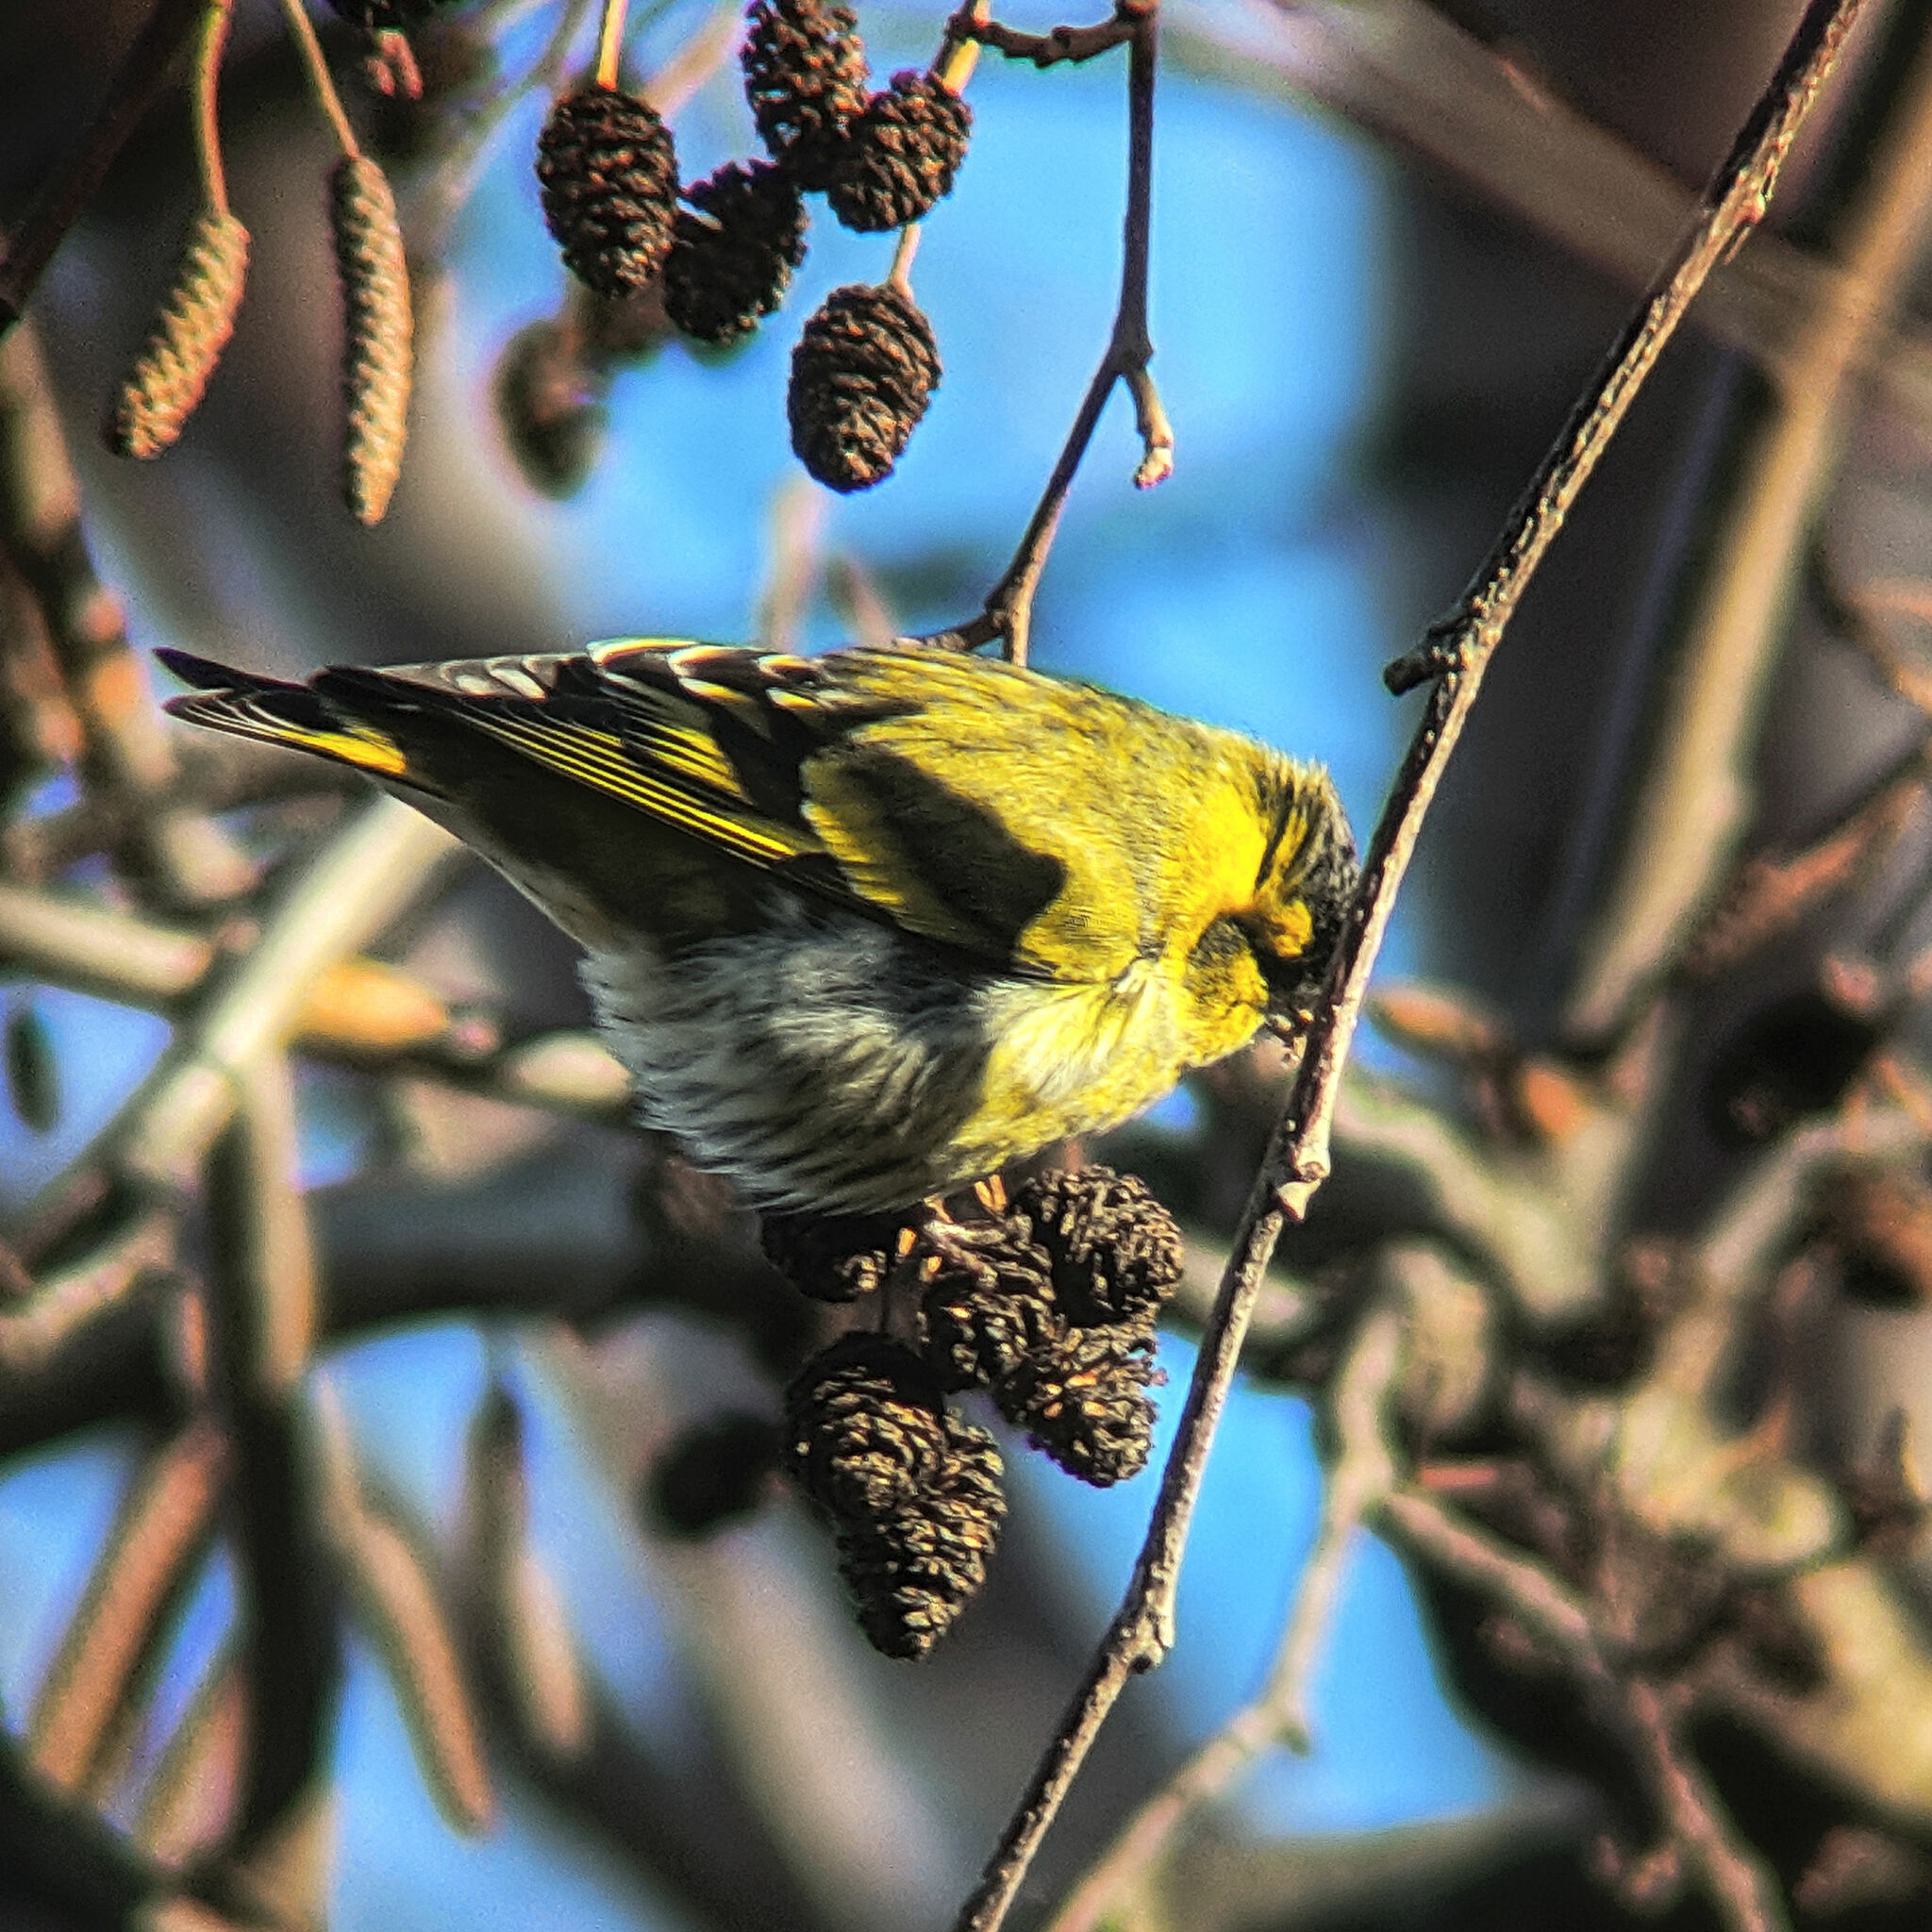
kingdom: Animalia
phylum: Chordata
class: Aves
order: Passeriformes
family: Fringillidae
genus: Spinus
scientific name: Spinus spinus
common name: Eurasian siskin
